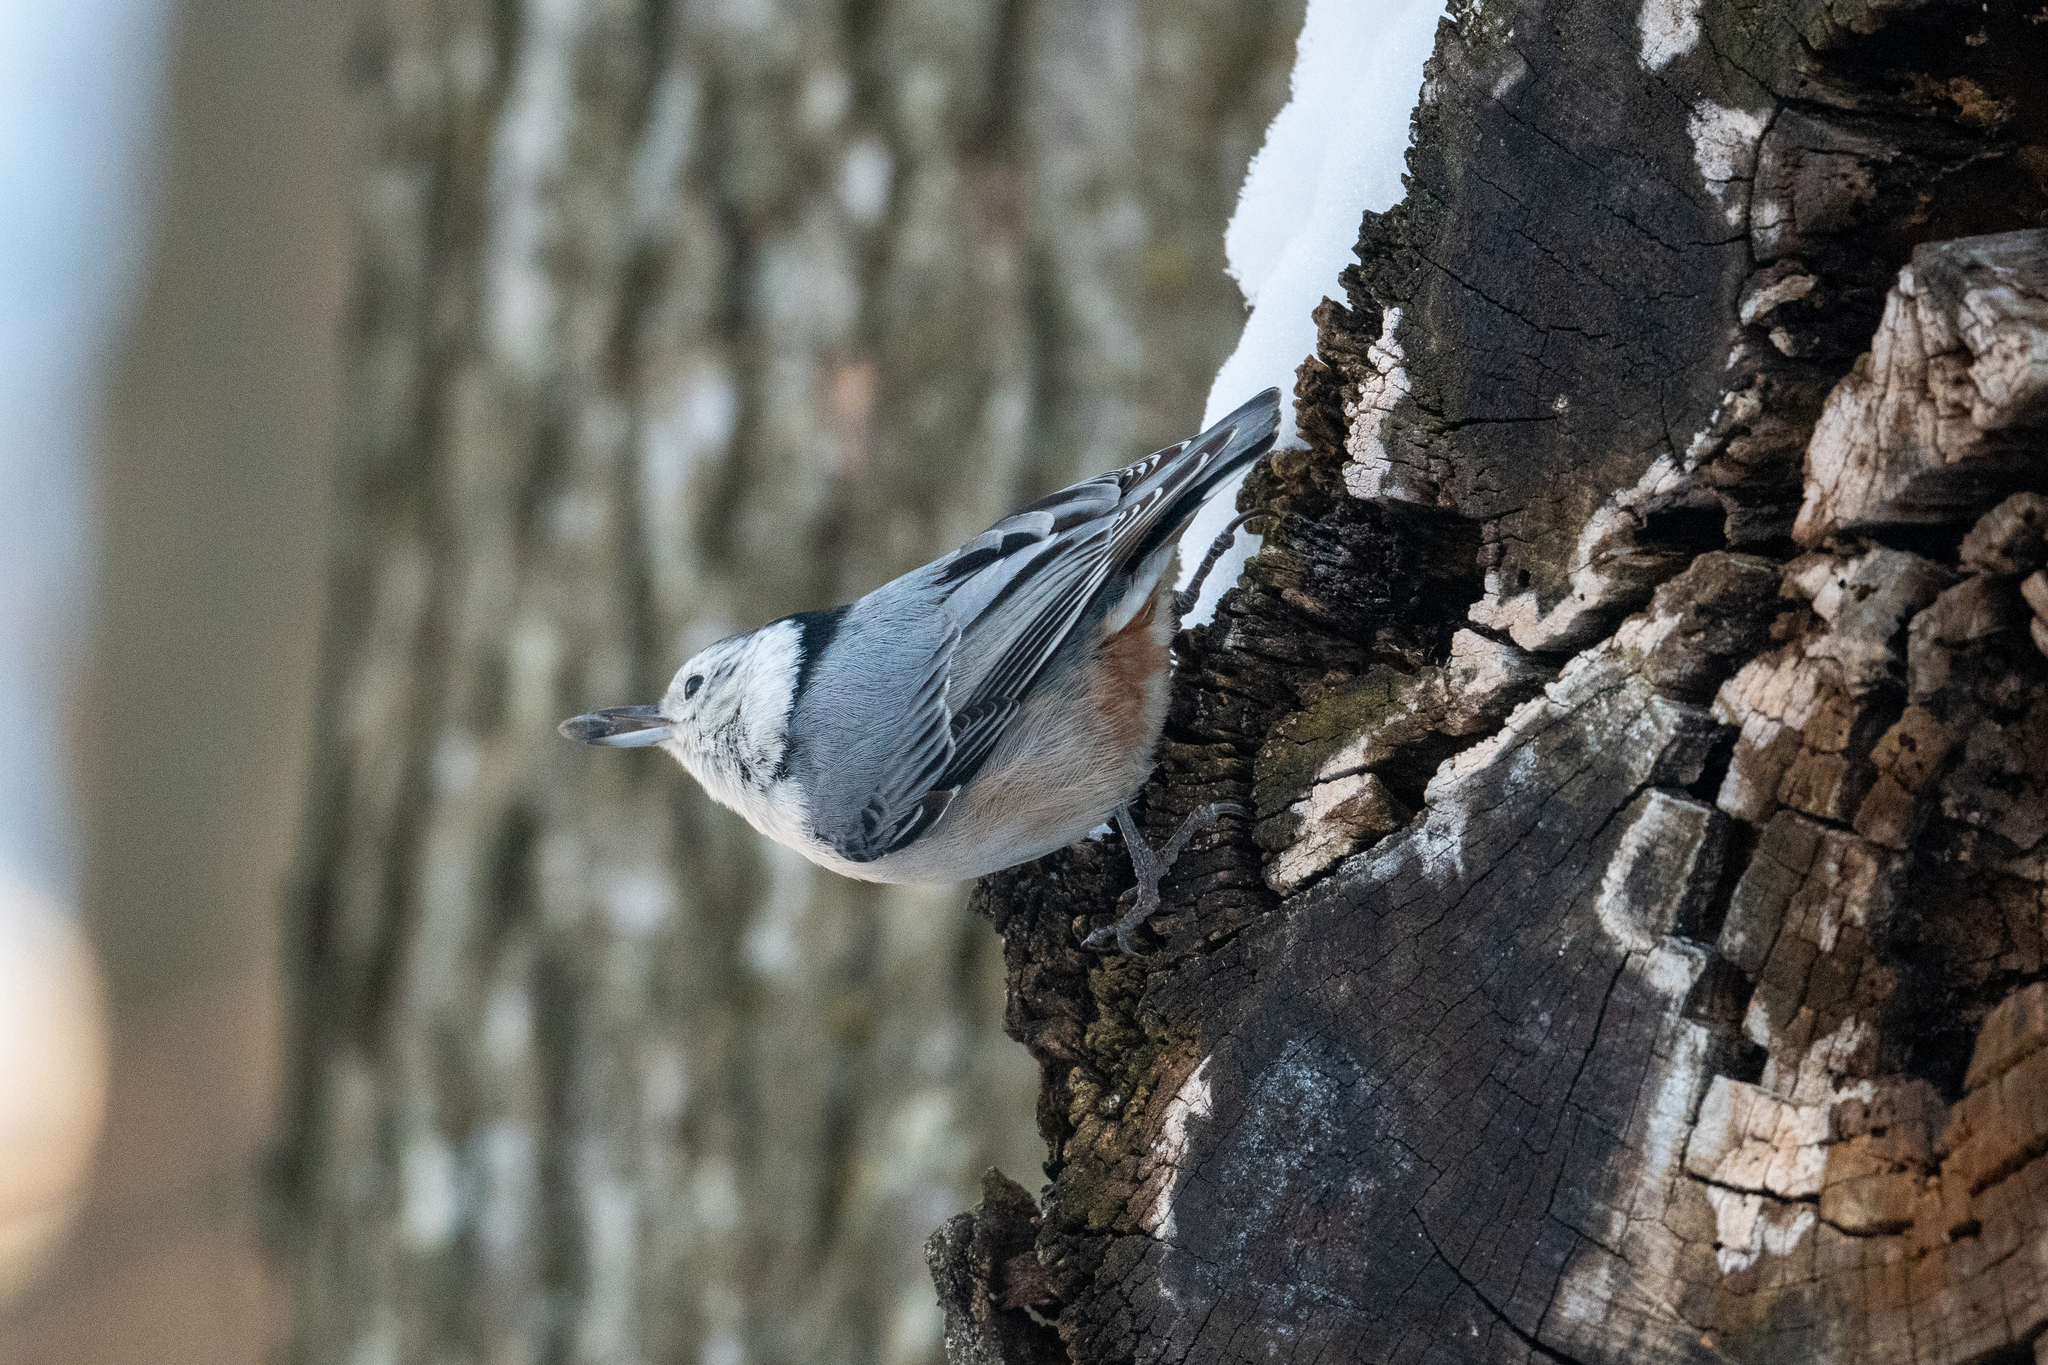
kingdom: Animalia
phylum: Chordata
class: Aves
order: Passeriformes
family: Sittidae
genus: Sitta
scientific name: Sitta carolinensis
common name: White-breasted nuthatch
